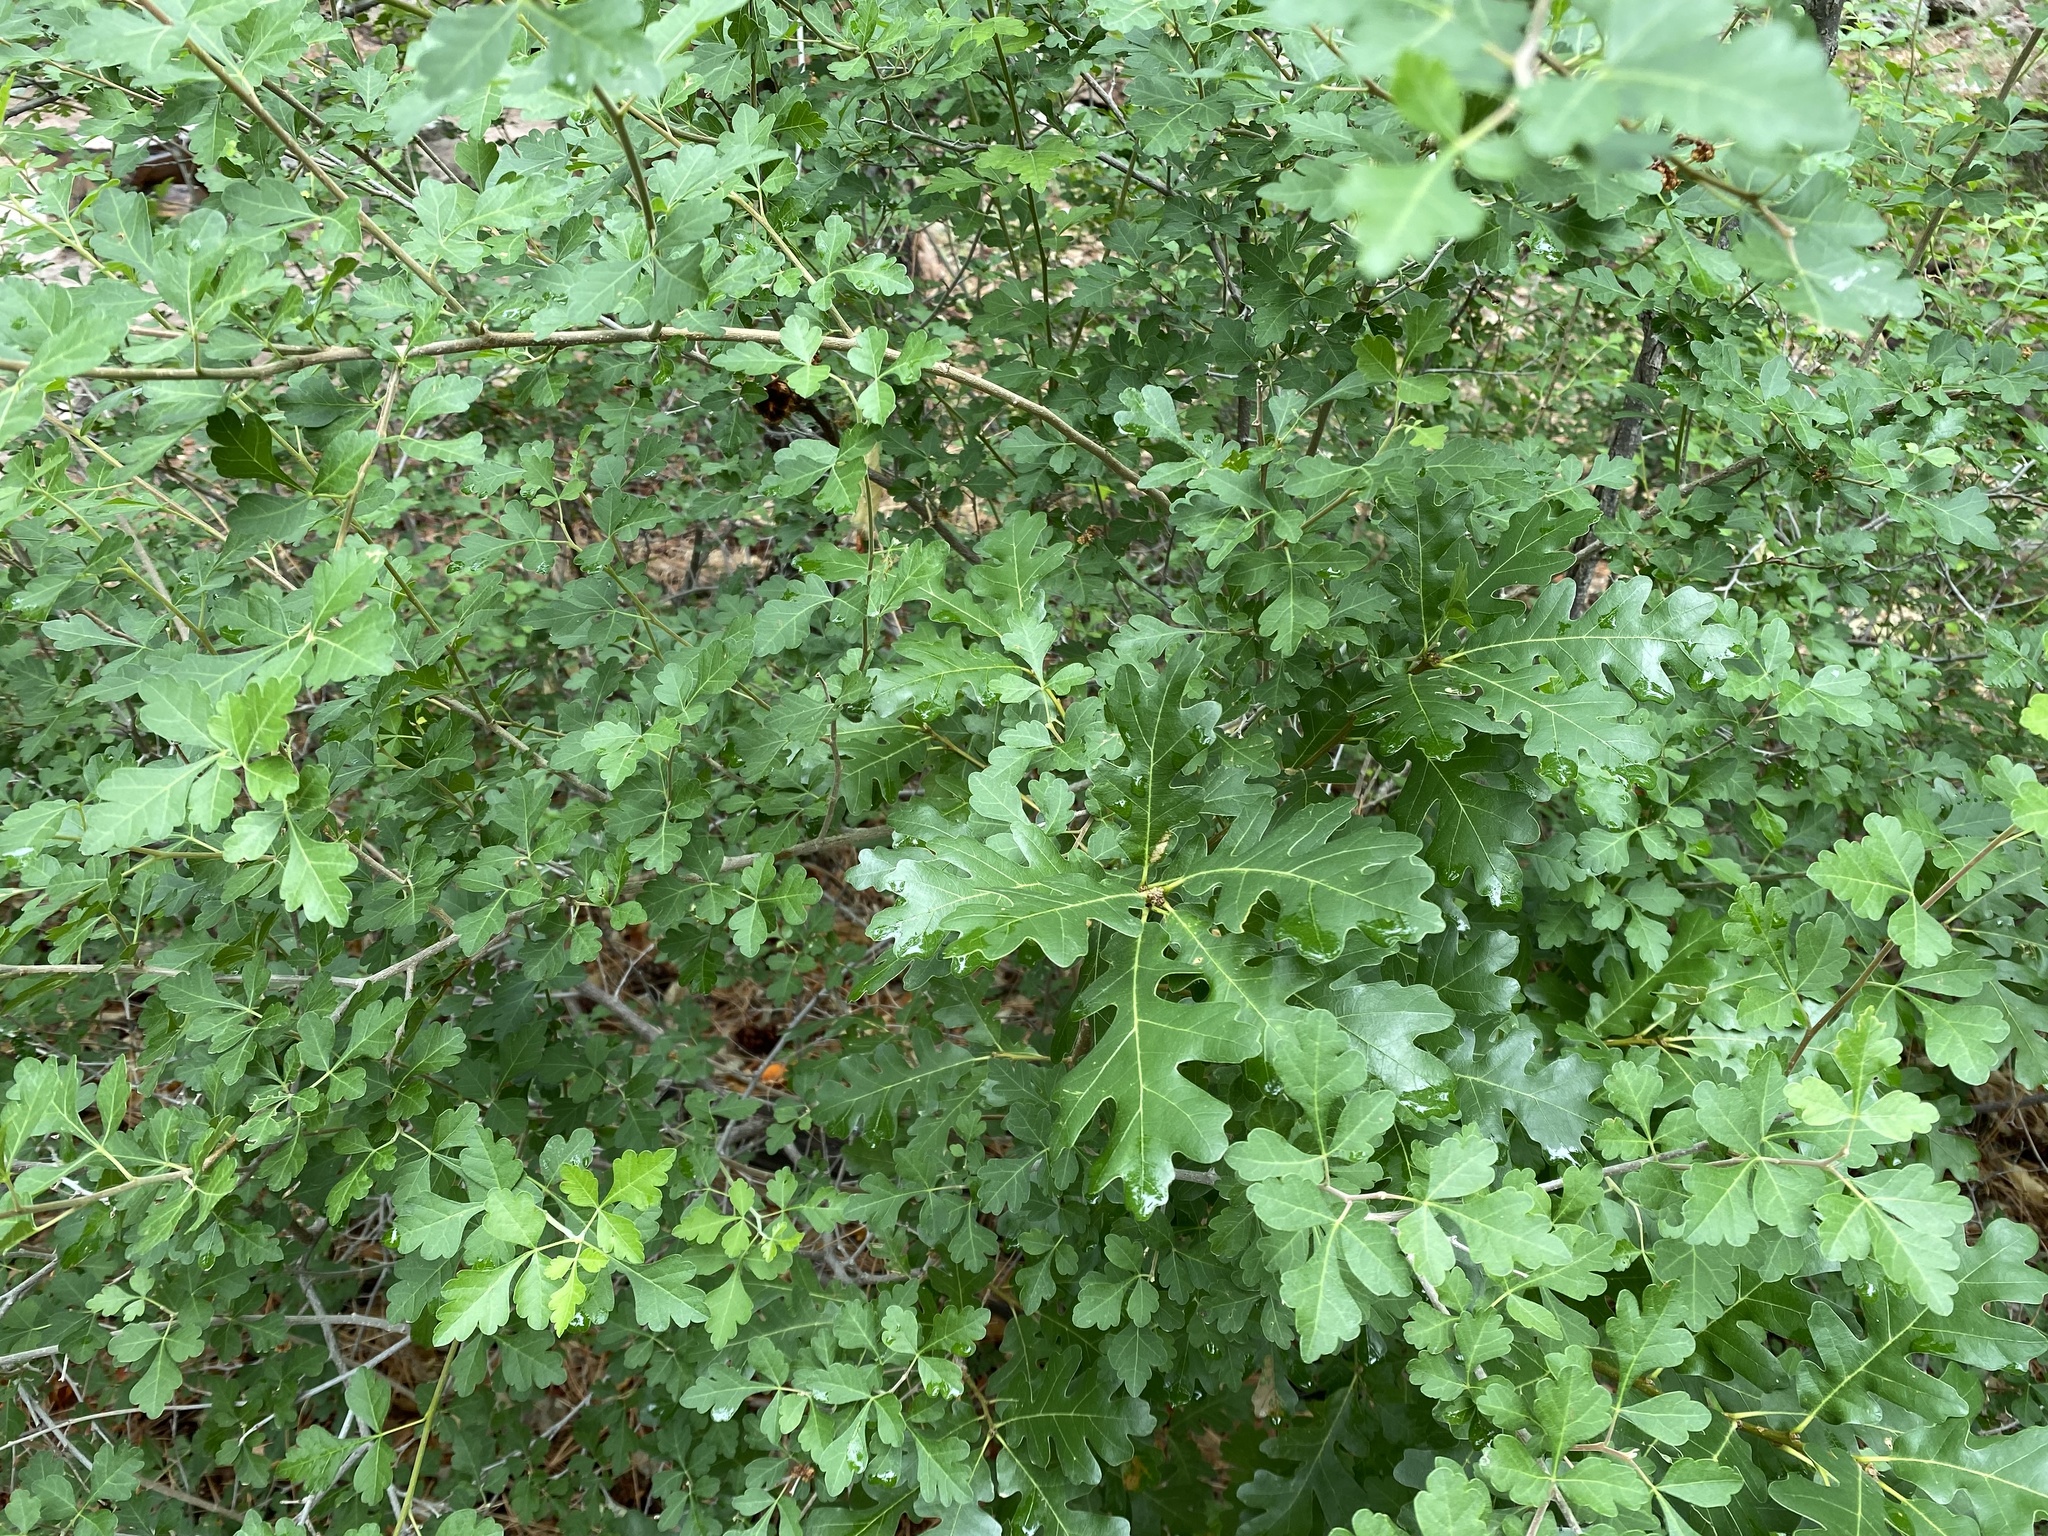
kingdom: Plantae
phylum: Tracheophyta
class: Magnoliopsida
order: Fagales
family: Fagaceae
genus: Quercus
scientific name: Quercus gambelii
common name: Gambel oak
